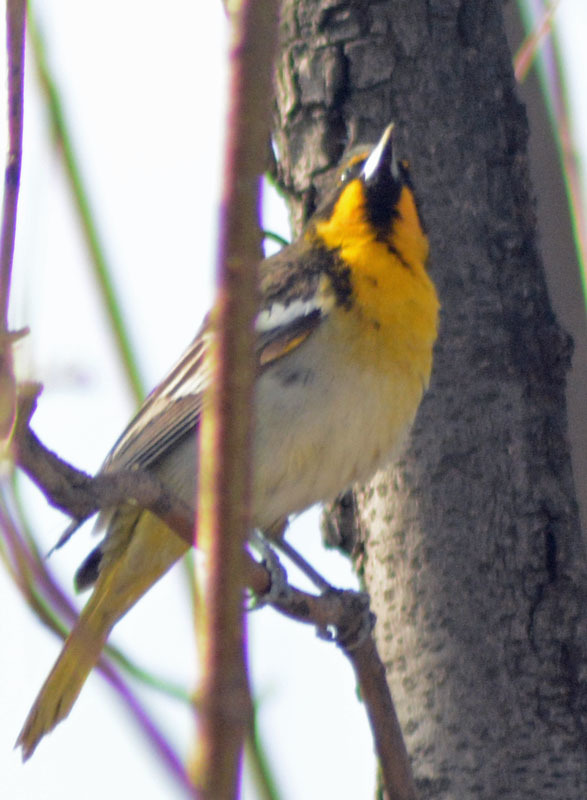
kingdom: Animalia
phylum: Chordata
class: Aves
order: Passeriformes
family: Icteridae
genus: Icterus
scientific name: Icterus abeillei
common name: Black-backed oriole
